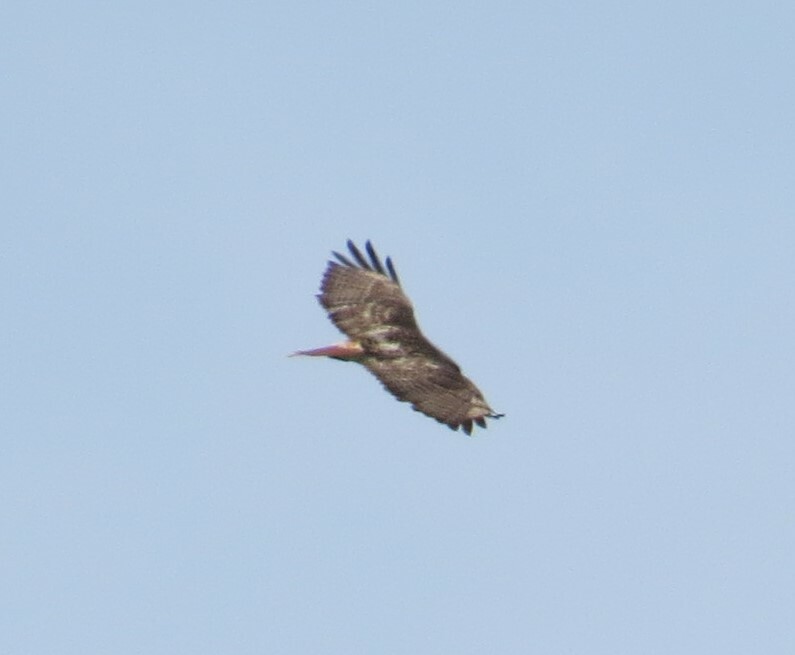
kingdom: Animalia
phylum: Chordata
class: Aves
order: Accipitriformes
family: Accipitridae
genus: Buteo
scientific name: Buteo jamaicensis
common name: Red-tailed hawk
